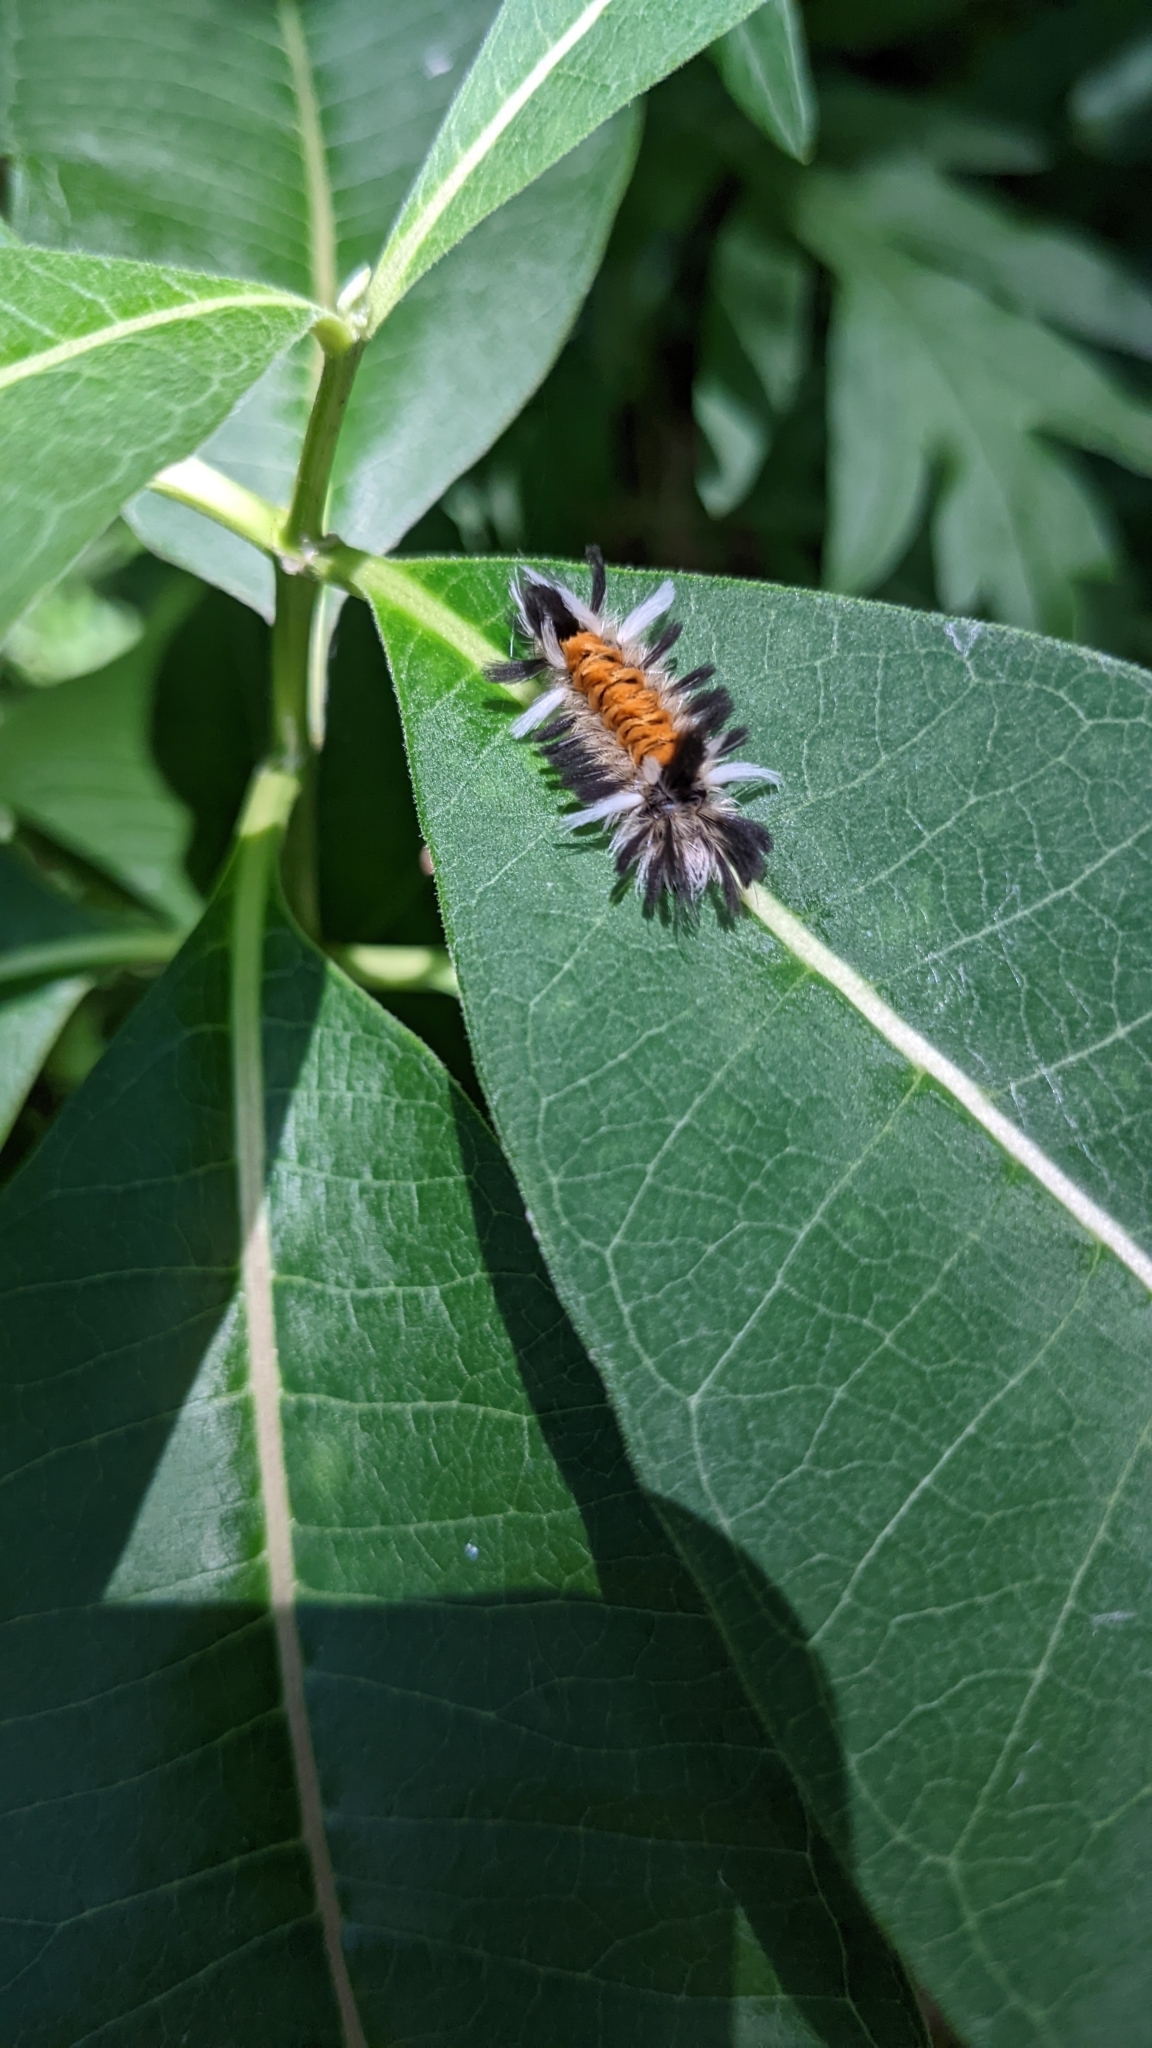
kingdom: Animalia
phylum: Arthropoda
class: Insecta
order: Lepidoptera
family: Erebidae
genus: Euchaetes
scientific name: Euchaetes egle
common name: Milkweed tussock moth
